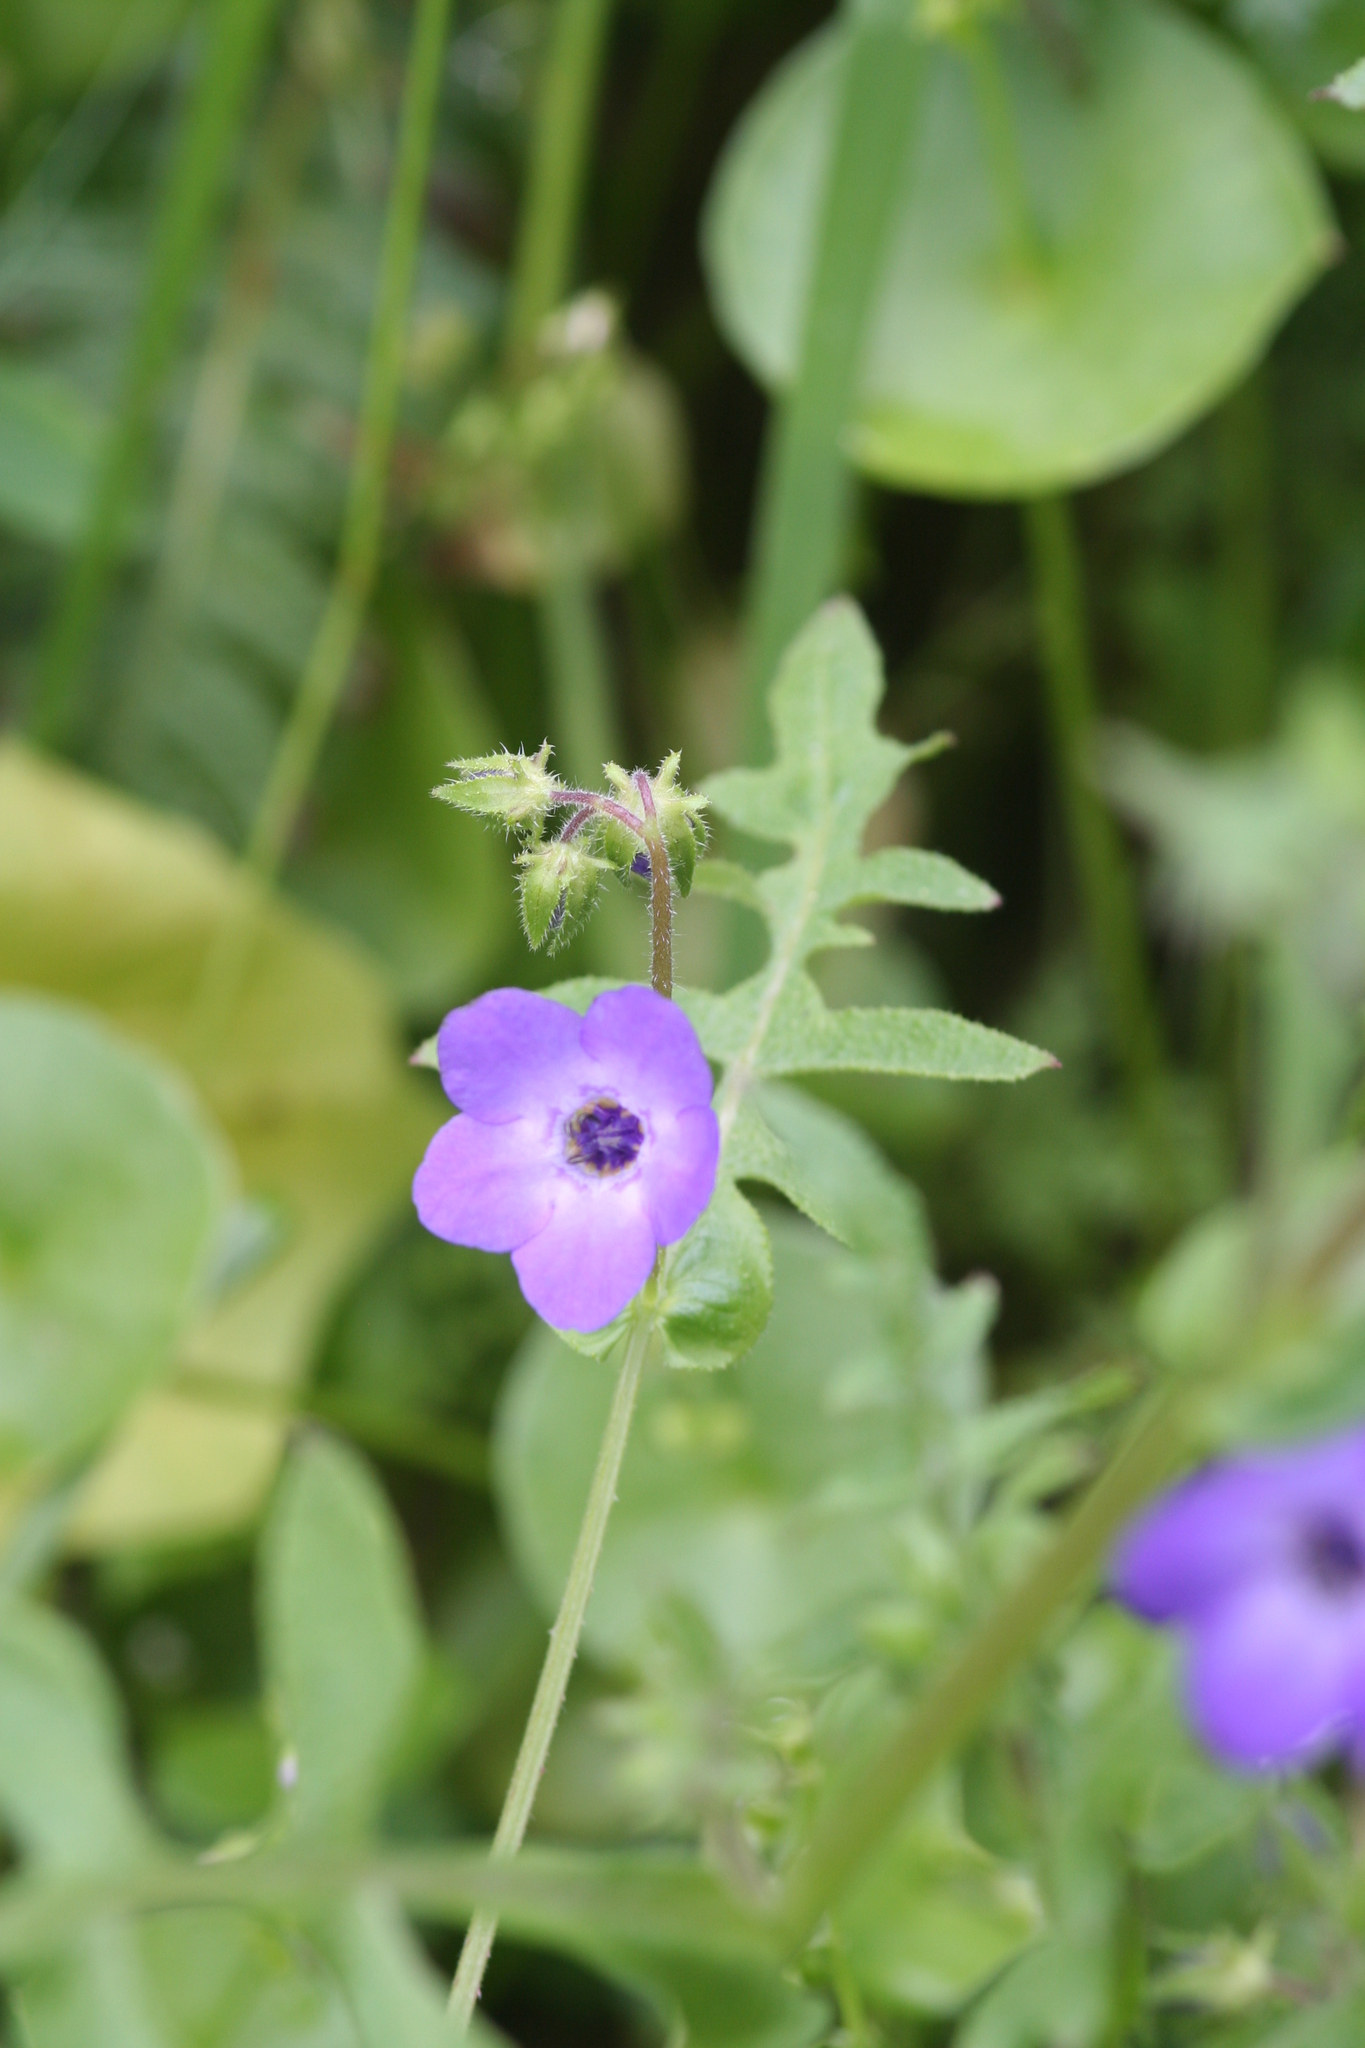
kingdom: Plantae
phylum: Tracheophyta
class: Magnoliopsida
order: Boraginales
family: Hydrophyllaceae
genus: Pholistoma
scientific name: Pholistoma auritum
